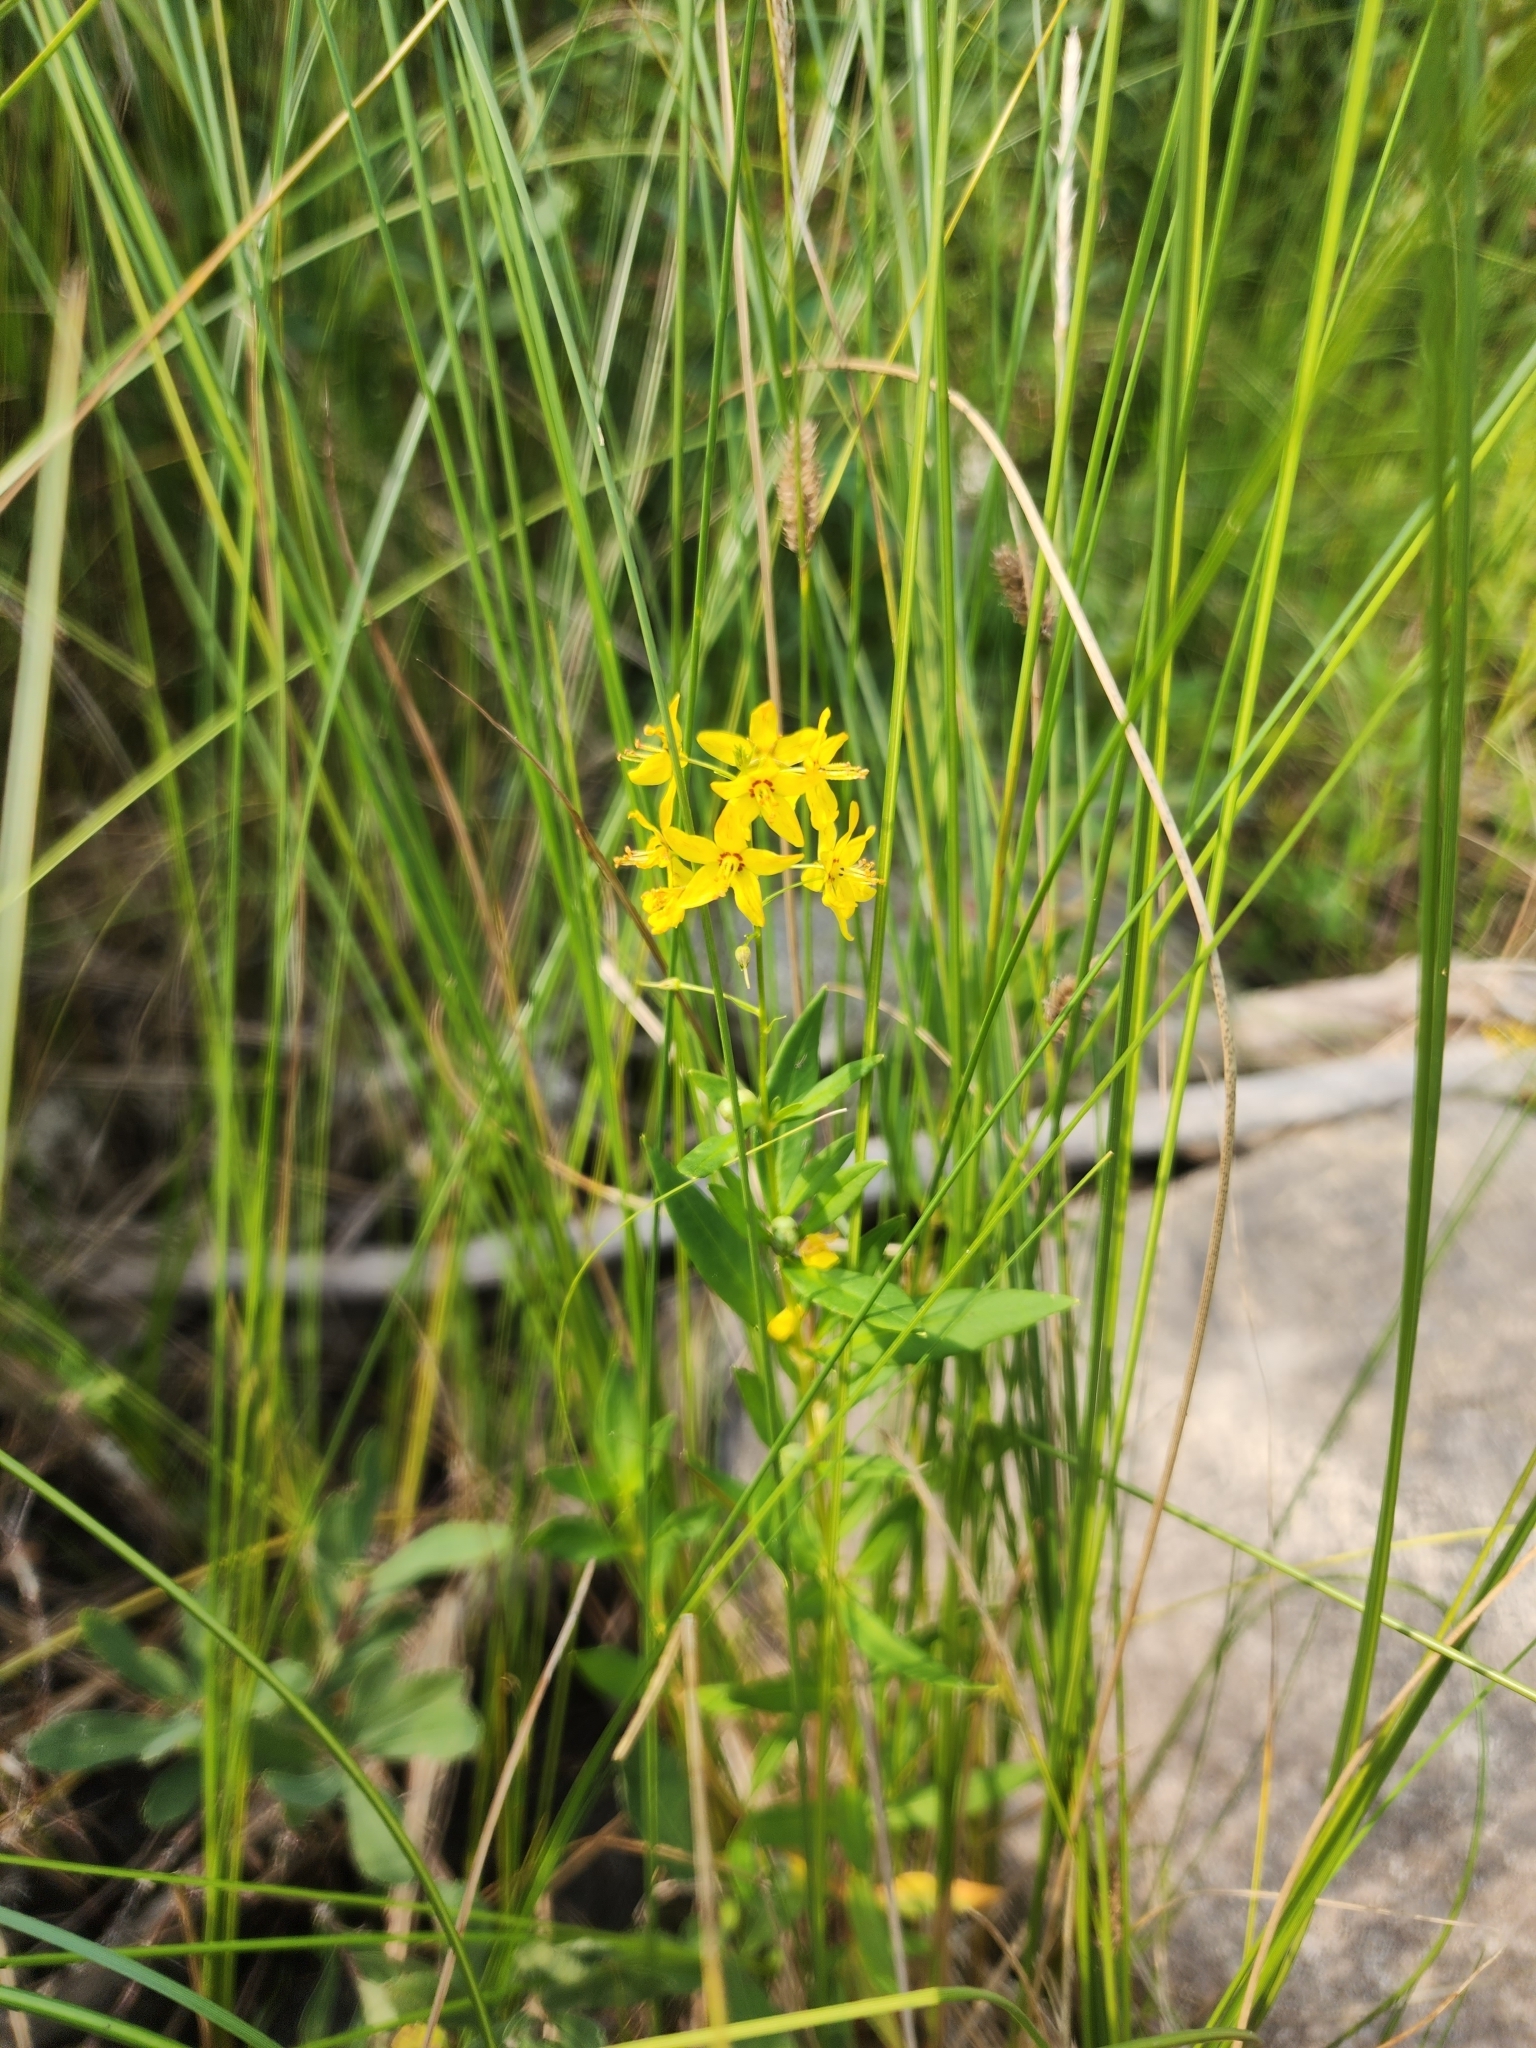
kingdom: Plantae
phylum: Tracheophyta
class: Magnoliopsida
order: Ericales
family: Primulaceae
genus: Lysimachia
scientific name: Lysimachia terrestris
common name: Lake loosestrife
